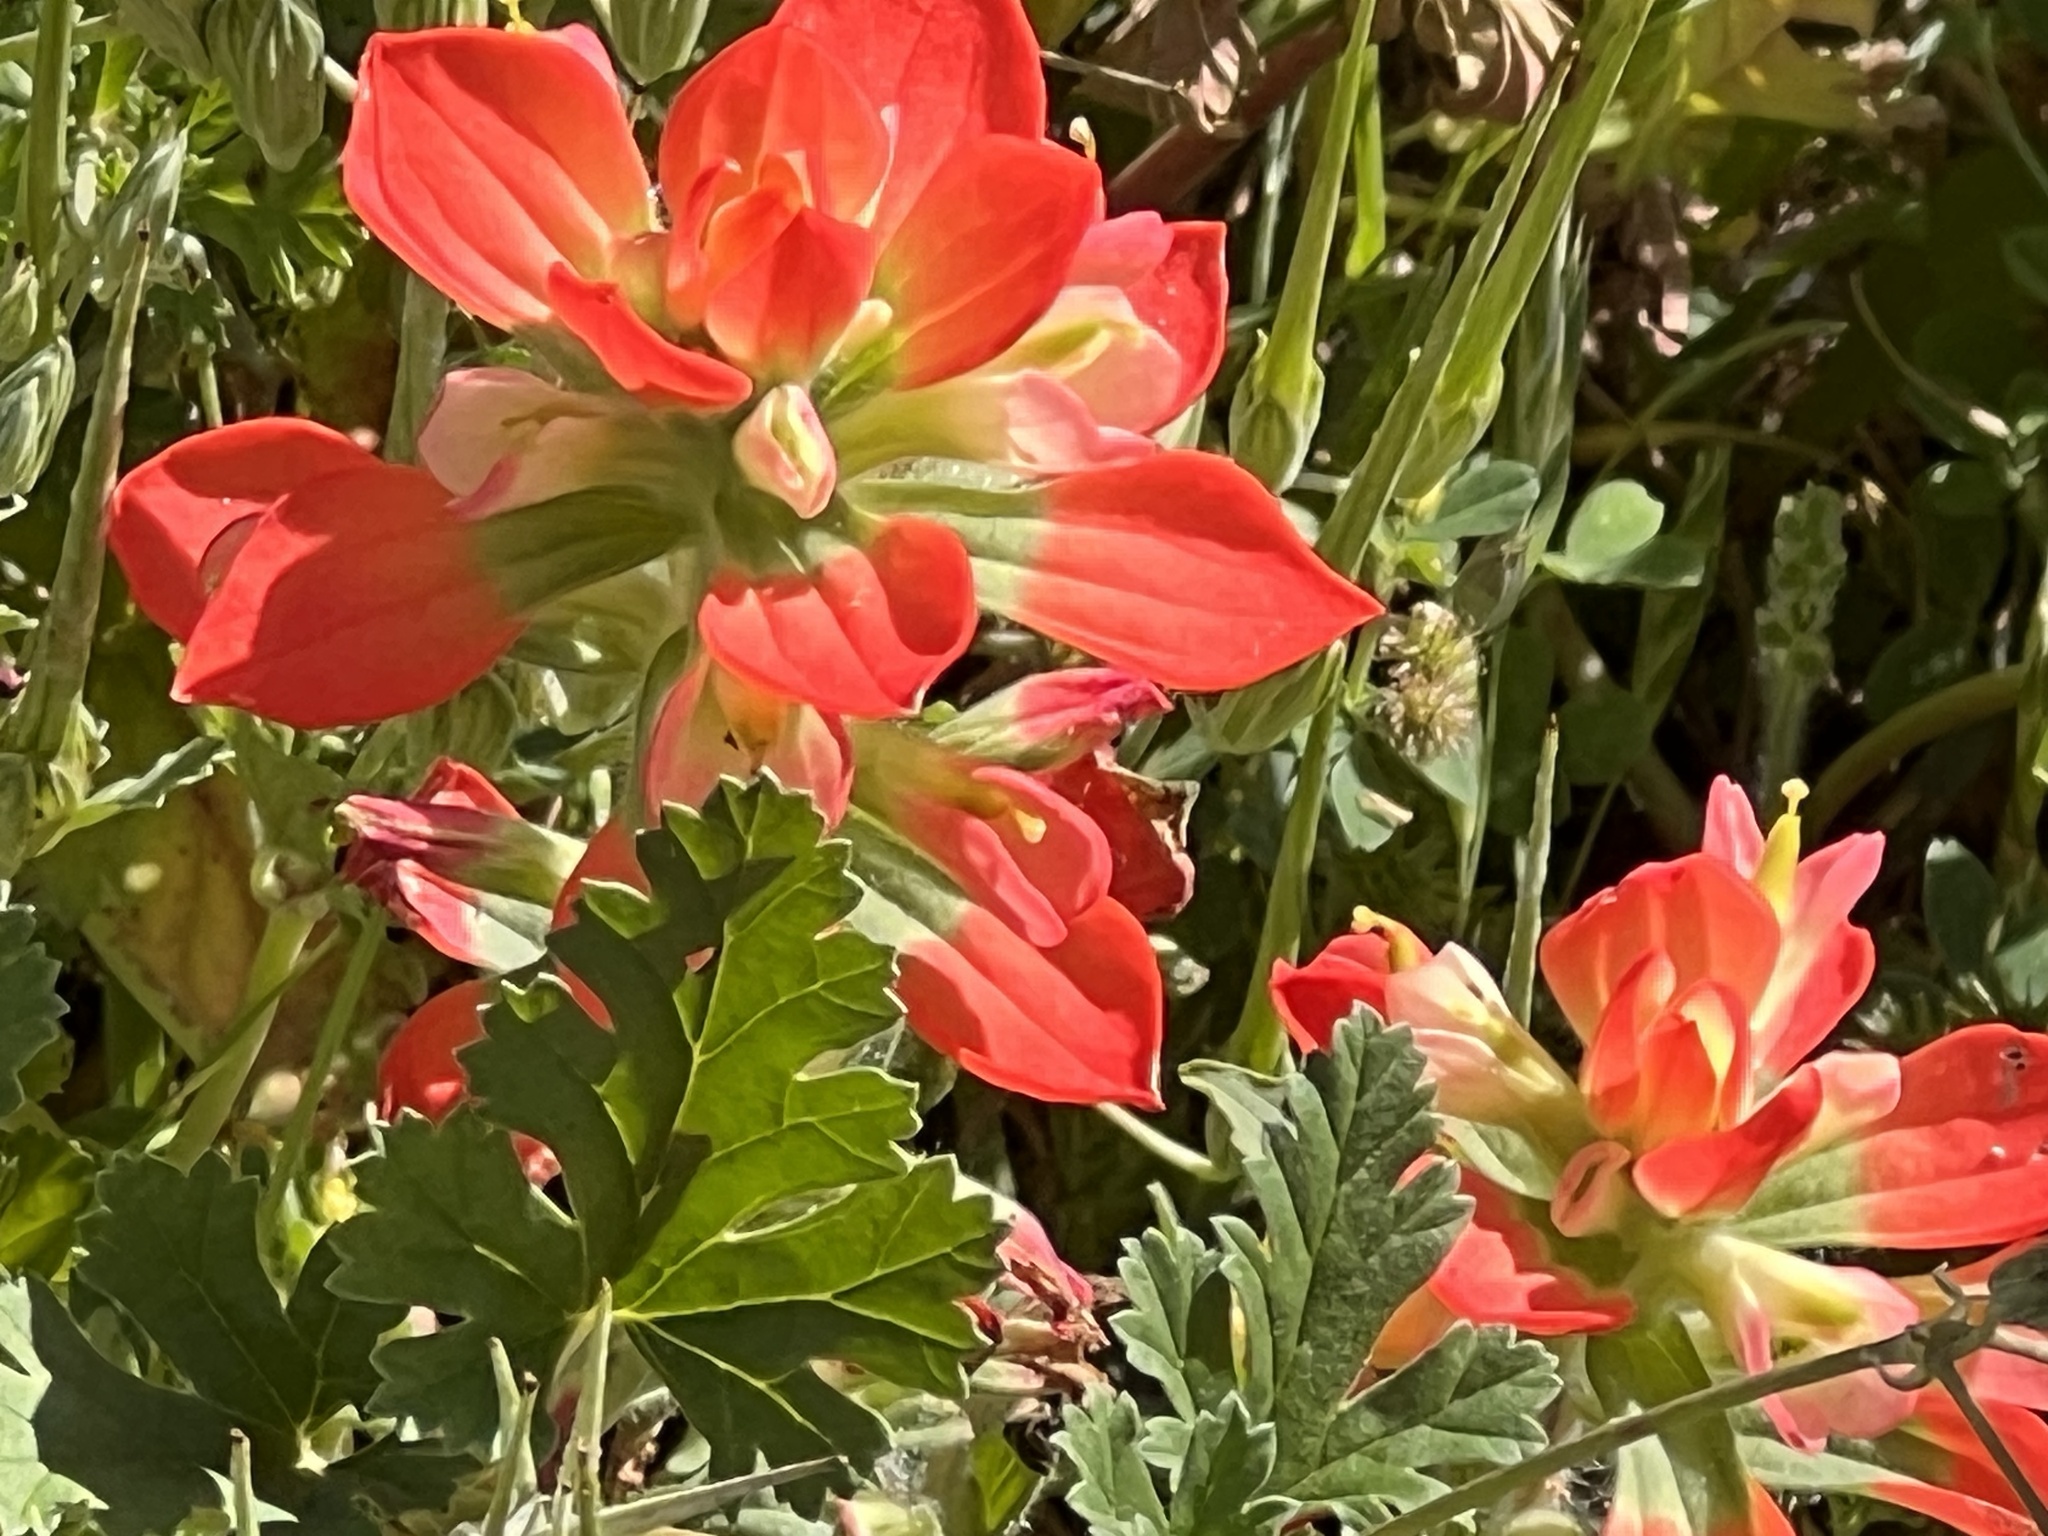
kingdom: Plantae
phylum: Tracheophyta
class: Magnoliopsida
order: Lamiales
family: Orobanchaceae
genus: Castilleja
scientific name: Castilleja indivisa
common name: Texas paintbrush
